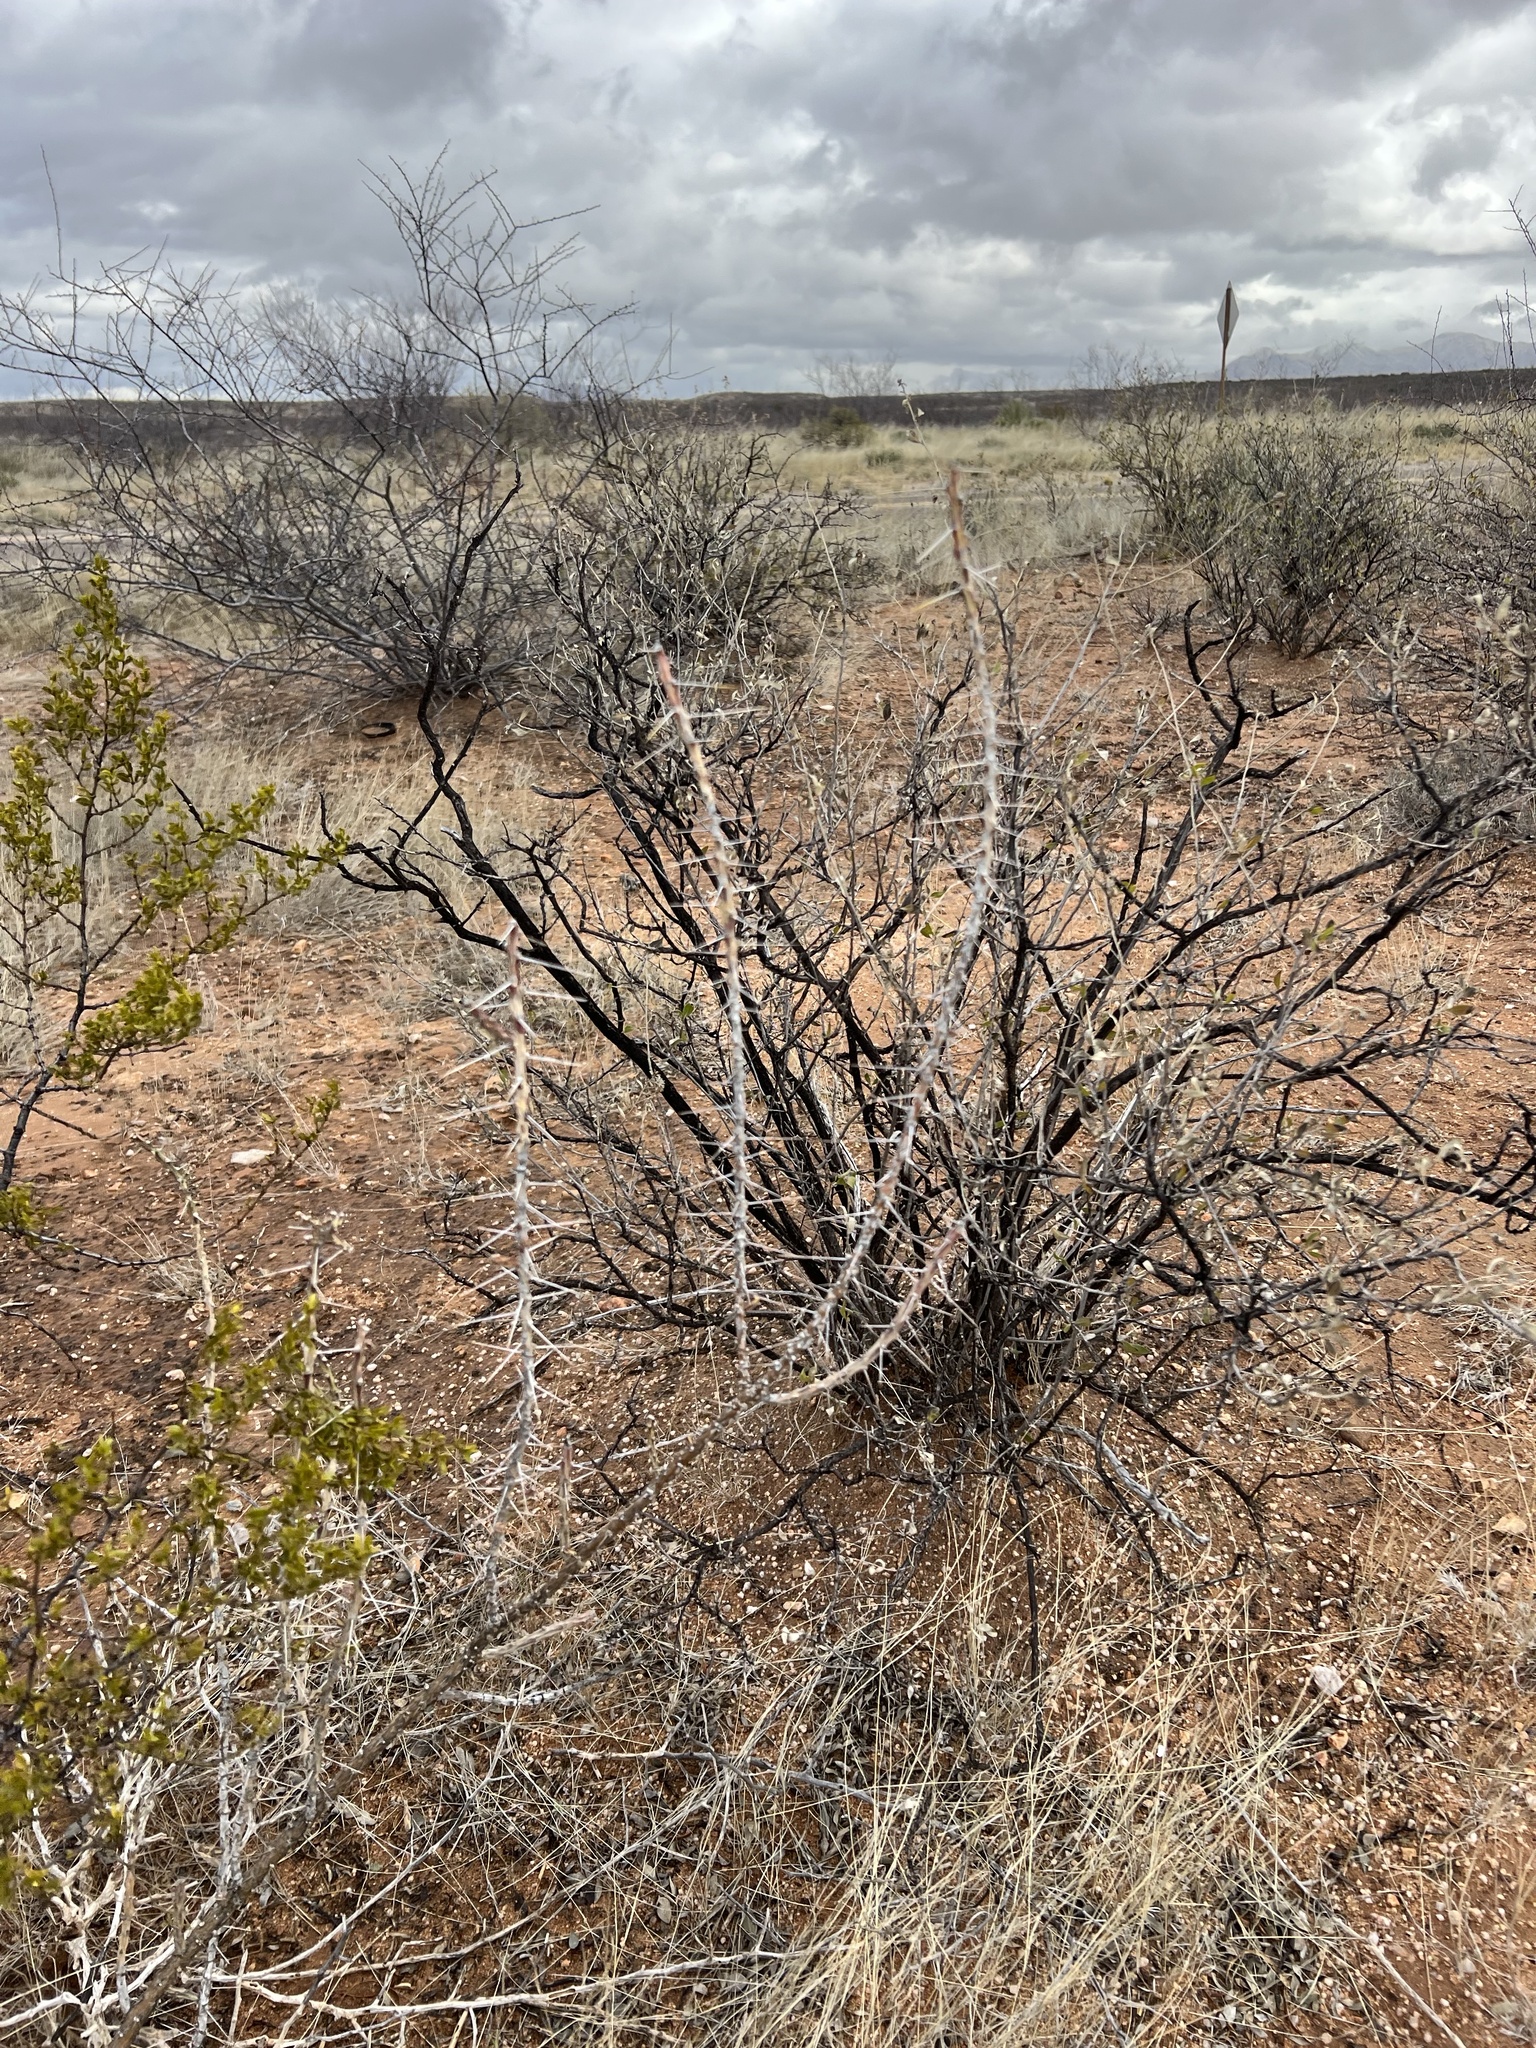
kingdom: Plantae
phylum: Tracheophyta
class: Magnoliopsida
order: Caryophyllales
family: Cactaceae
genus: Cylindropuntia
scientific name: Cylindropuntia leptocaulis
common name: Christmas cactus
